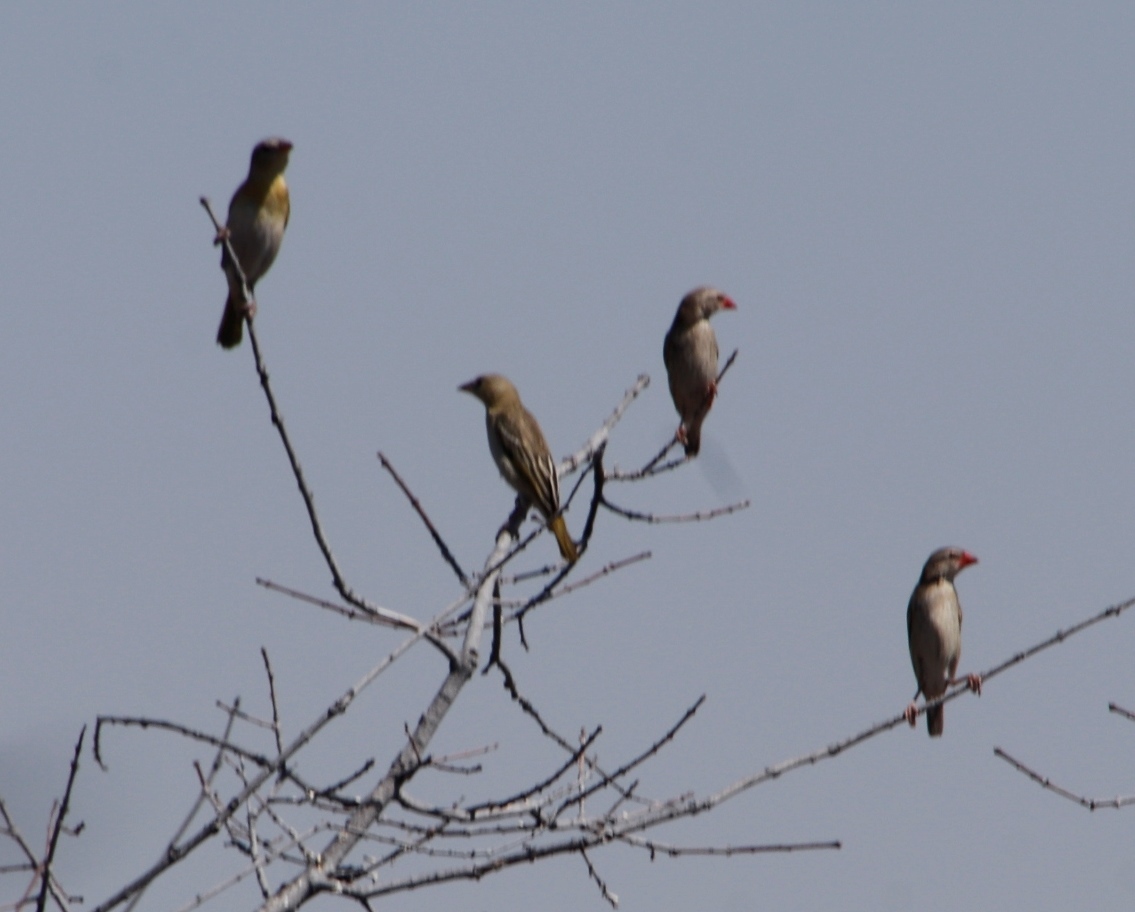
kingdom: Animalia
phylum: Chordata
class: Aves
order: Passeriformes
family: Ploceidae
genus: Quelea
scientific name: Quelea quelea
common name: Red-billed quelea
